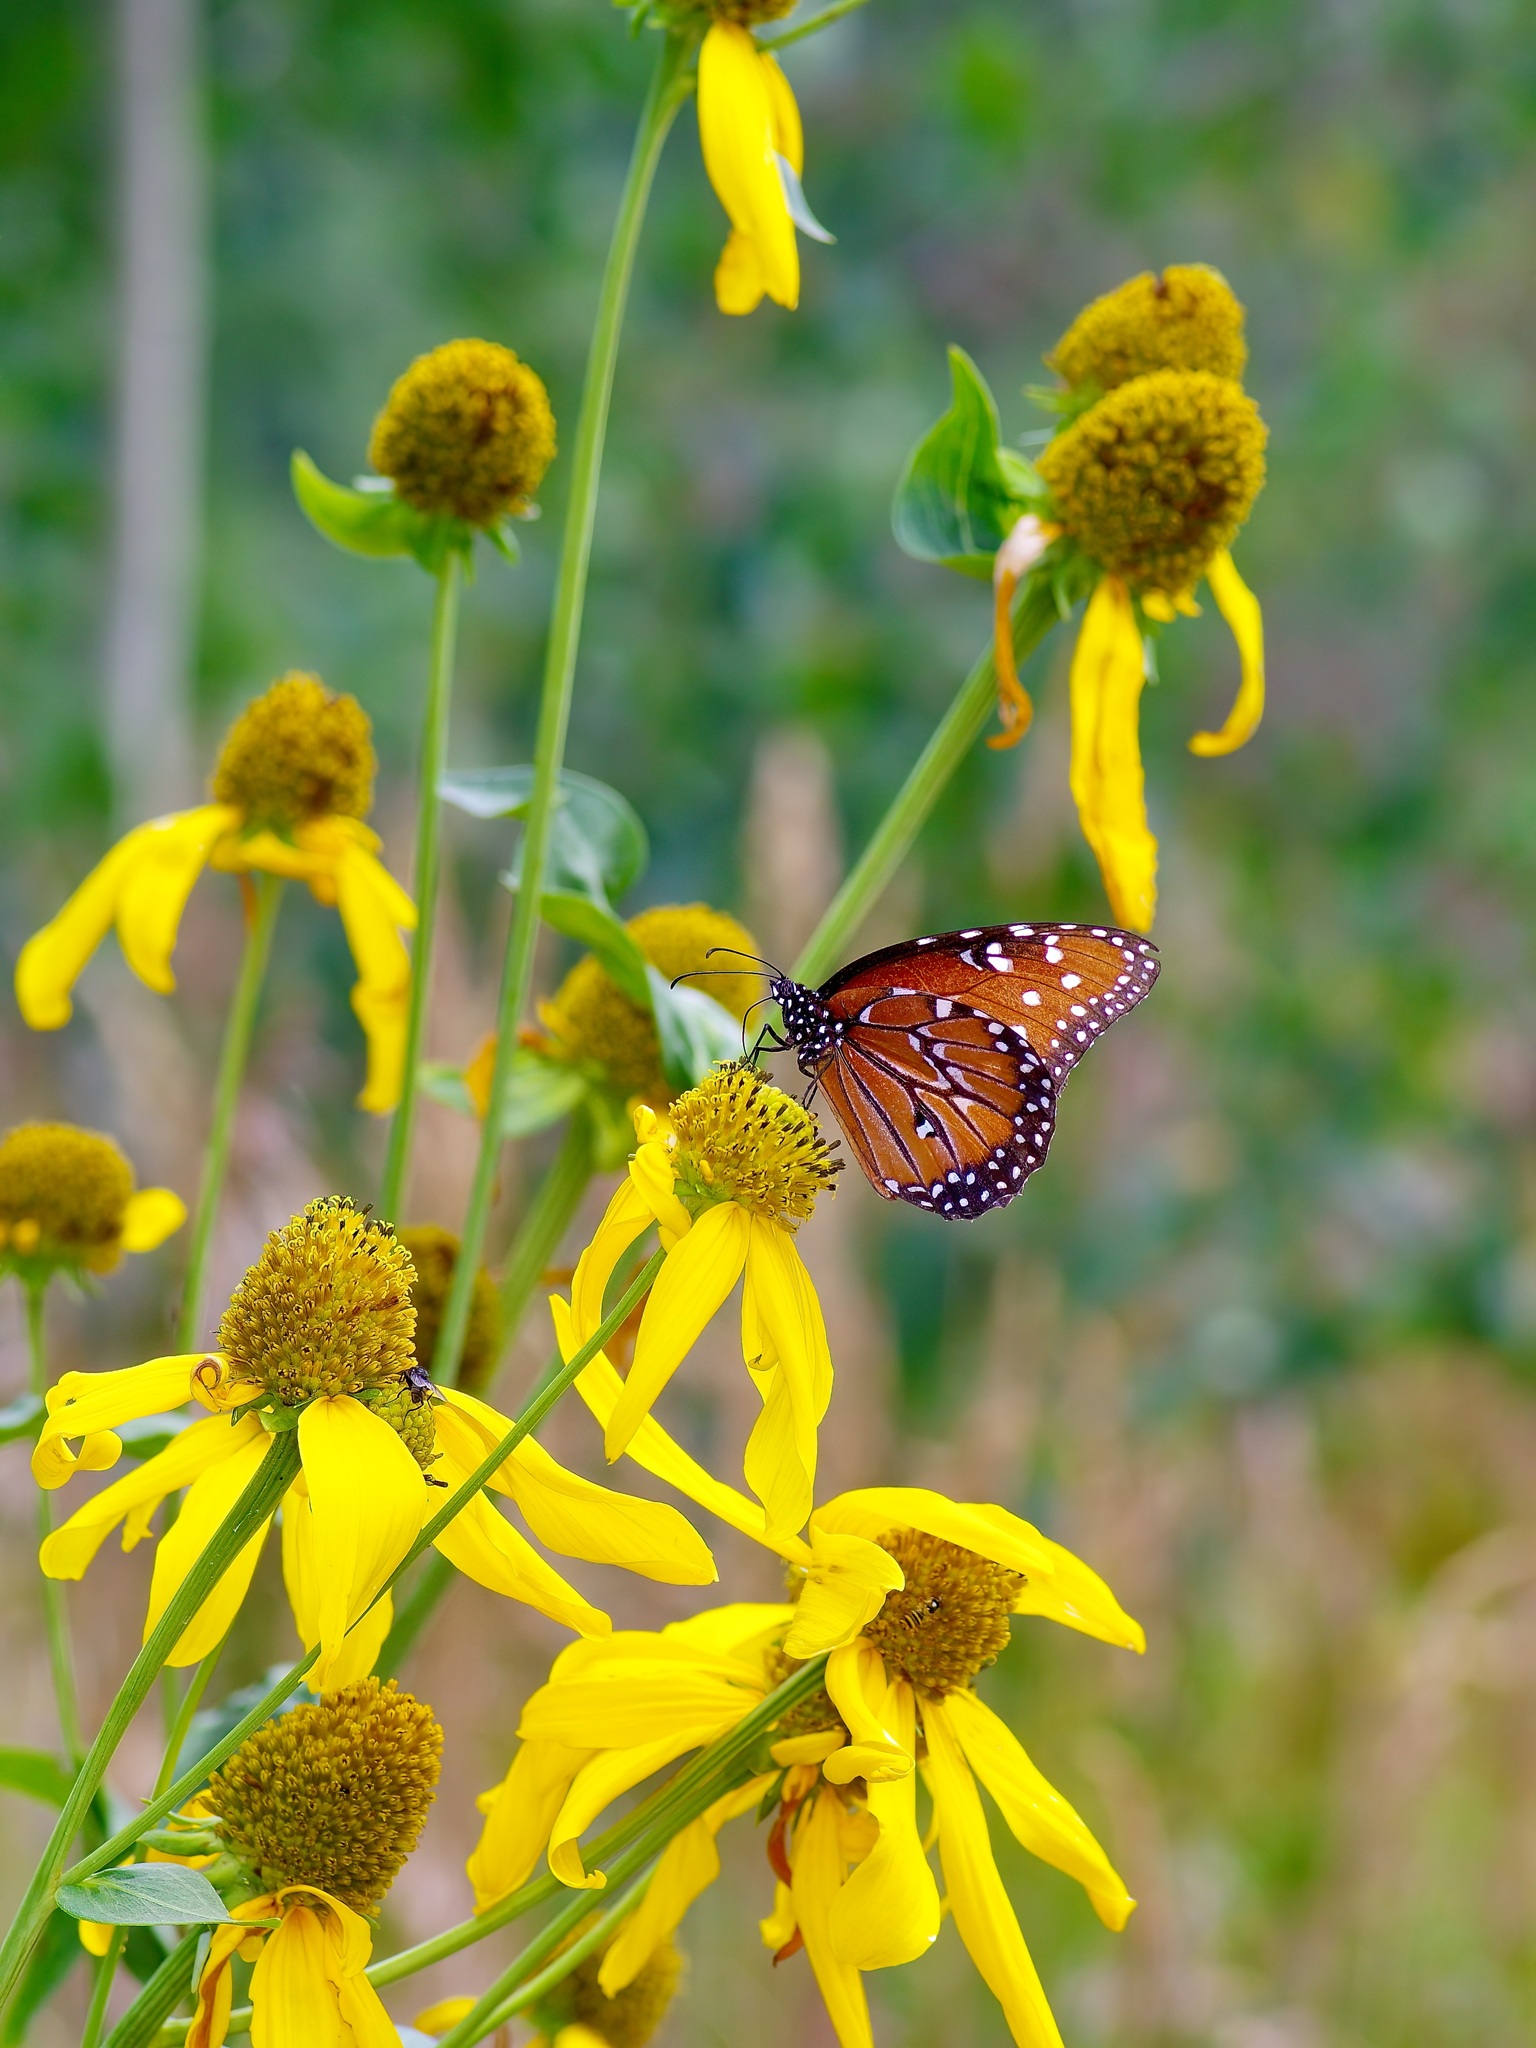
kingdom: Animalia
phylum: Arthropoda
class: Insecta
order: Lepidoptera
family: Nymphalidae
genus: Danaus
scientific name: Danaus gilippus
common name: Queen
